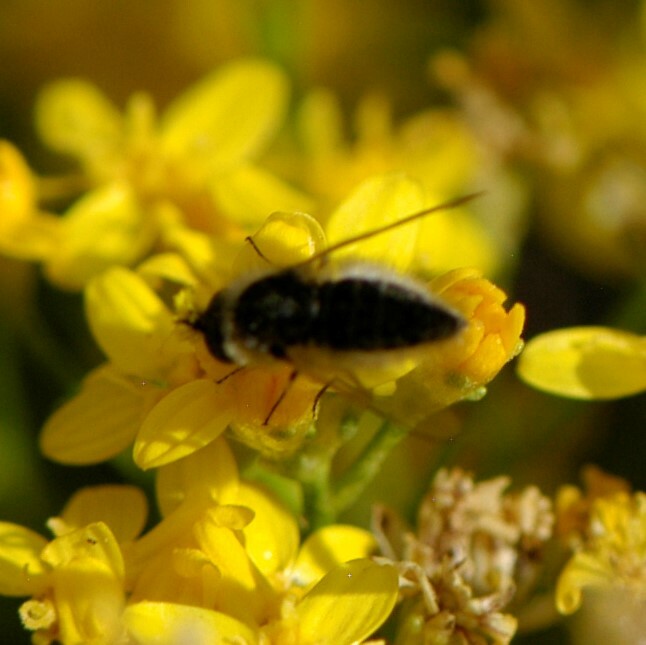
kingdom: Animalia
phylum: Arthropoda
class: Insecta
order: Diptera
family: Bombyliidae
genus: Sparnopolius
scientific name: Sparnopolius
